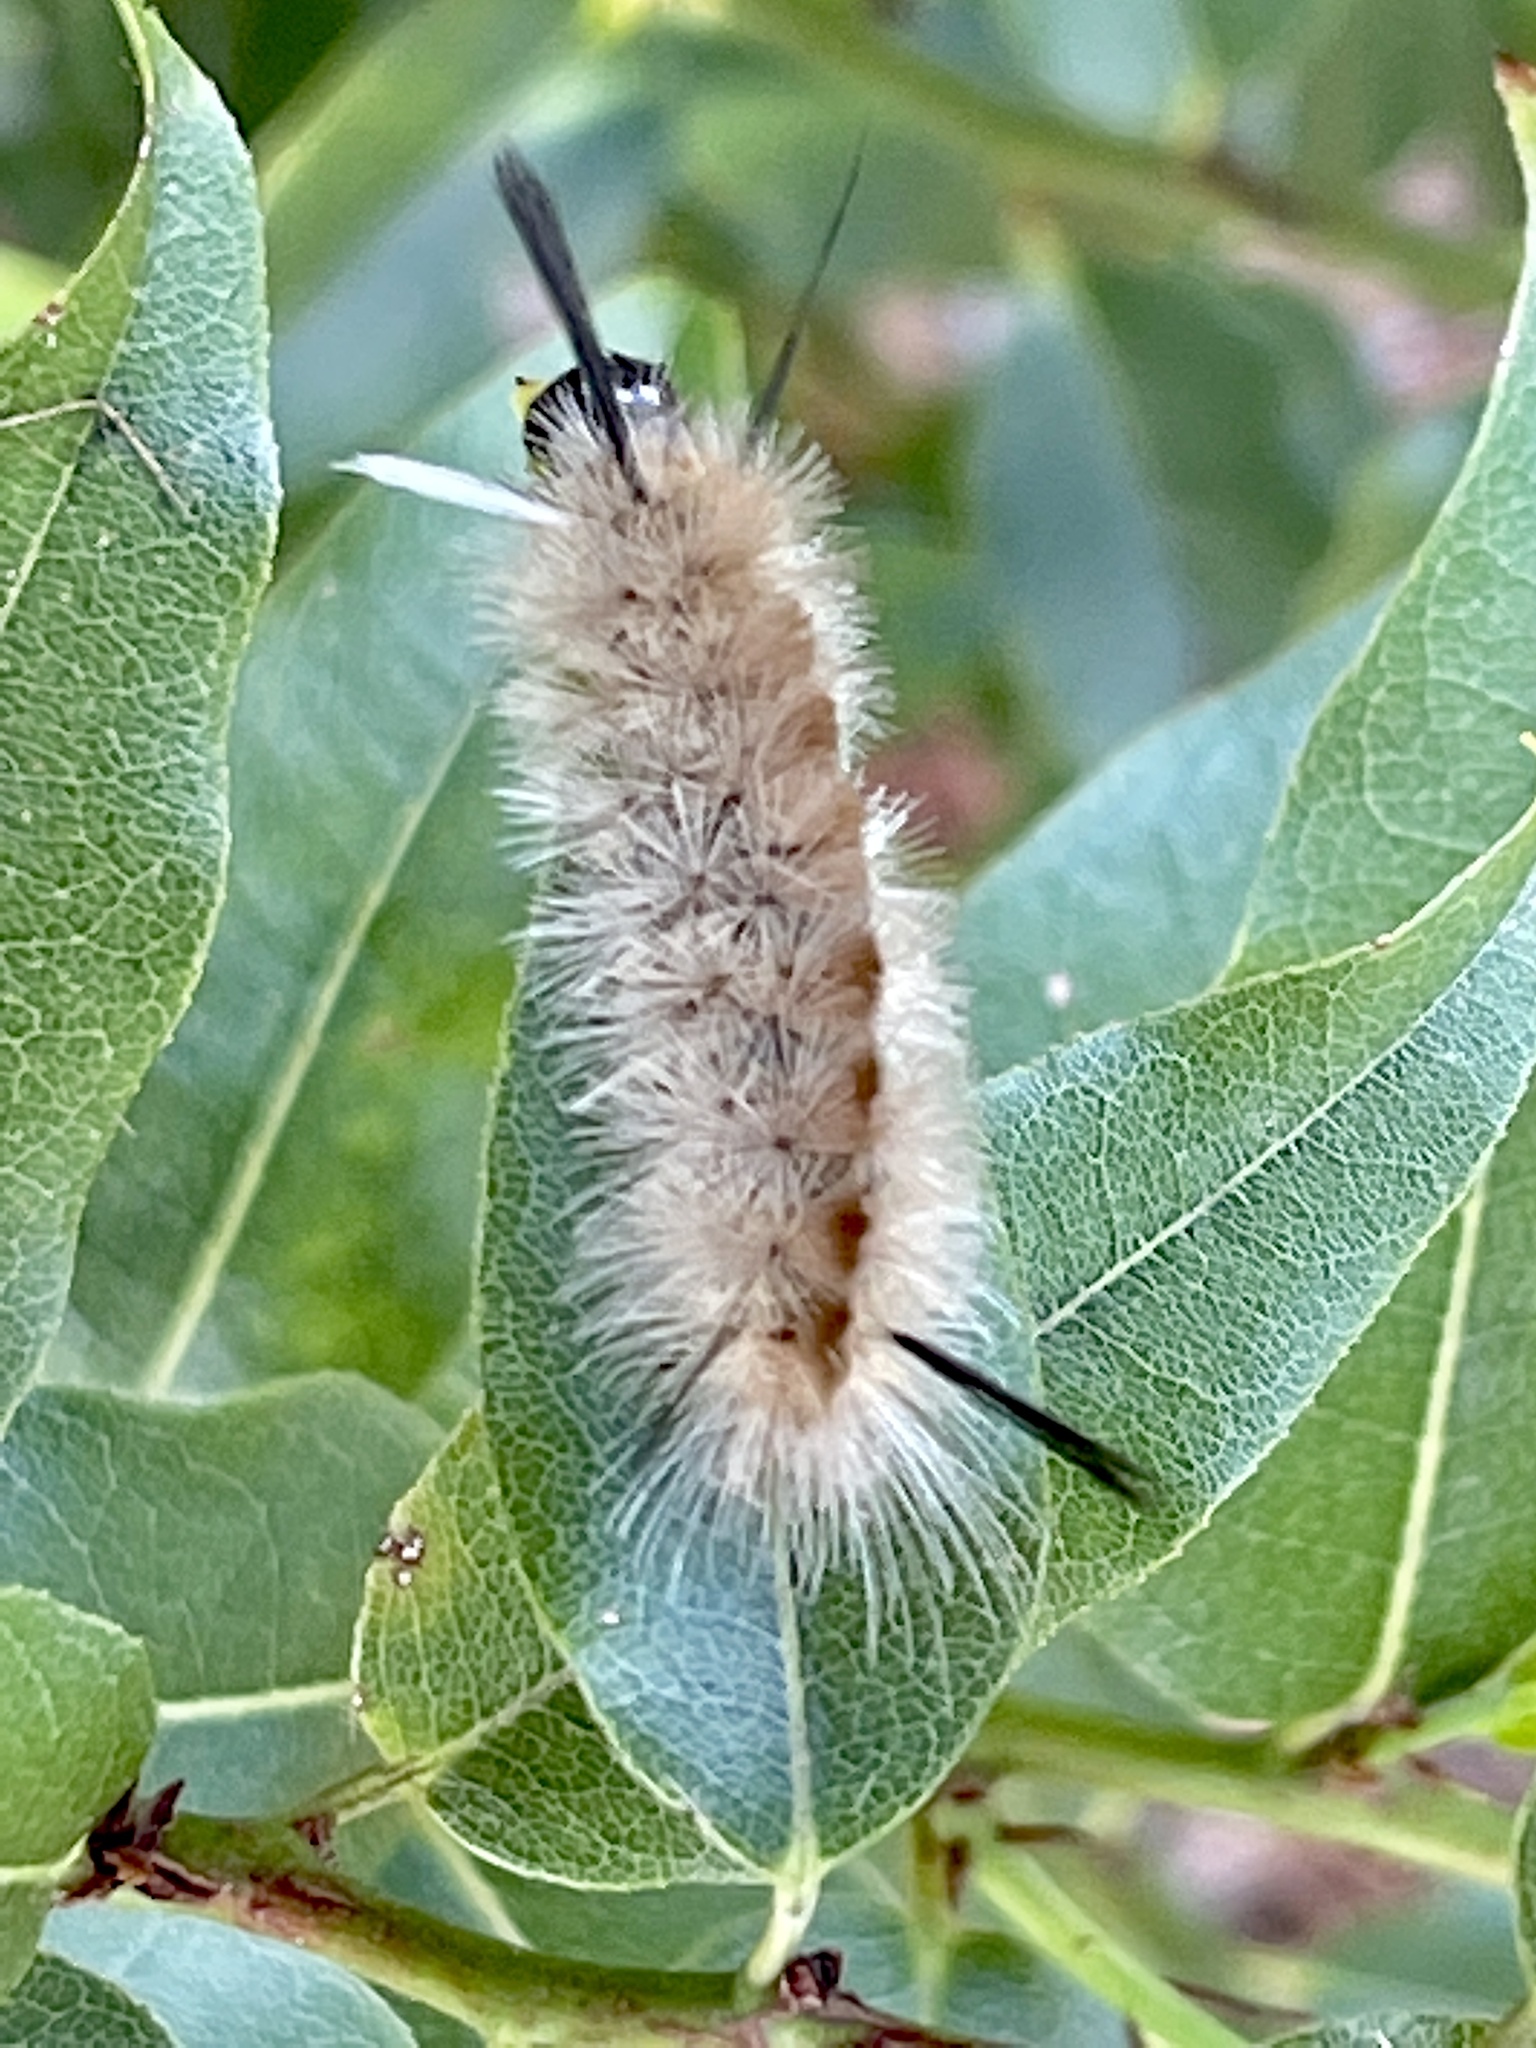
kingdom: Animalia
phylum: Arthropoda
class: Insecta
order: Lepidoptera
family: Erebidae
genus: Halysidota
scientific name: Halysidota tessellaris
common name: Banded tussock moth
